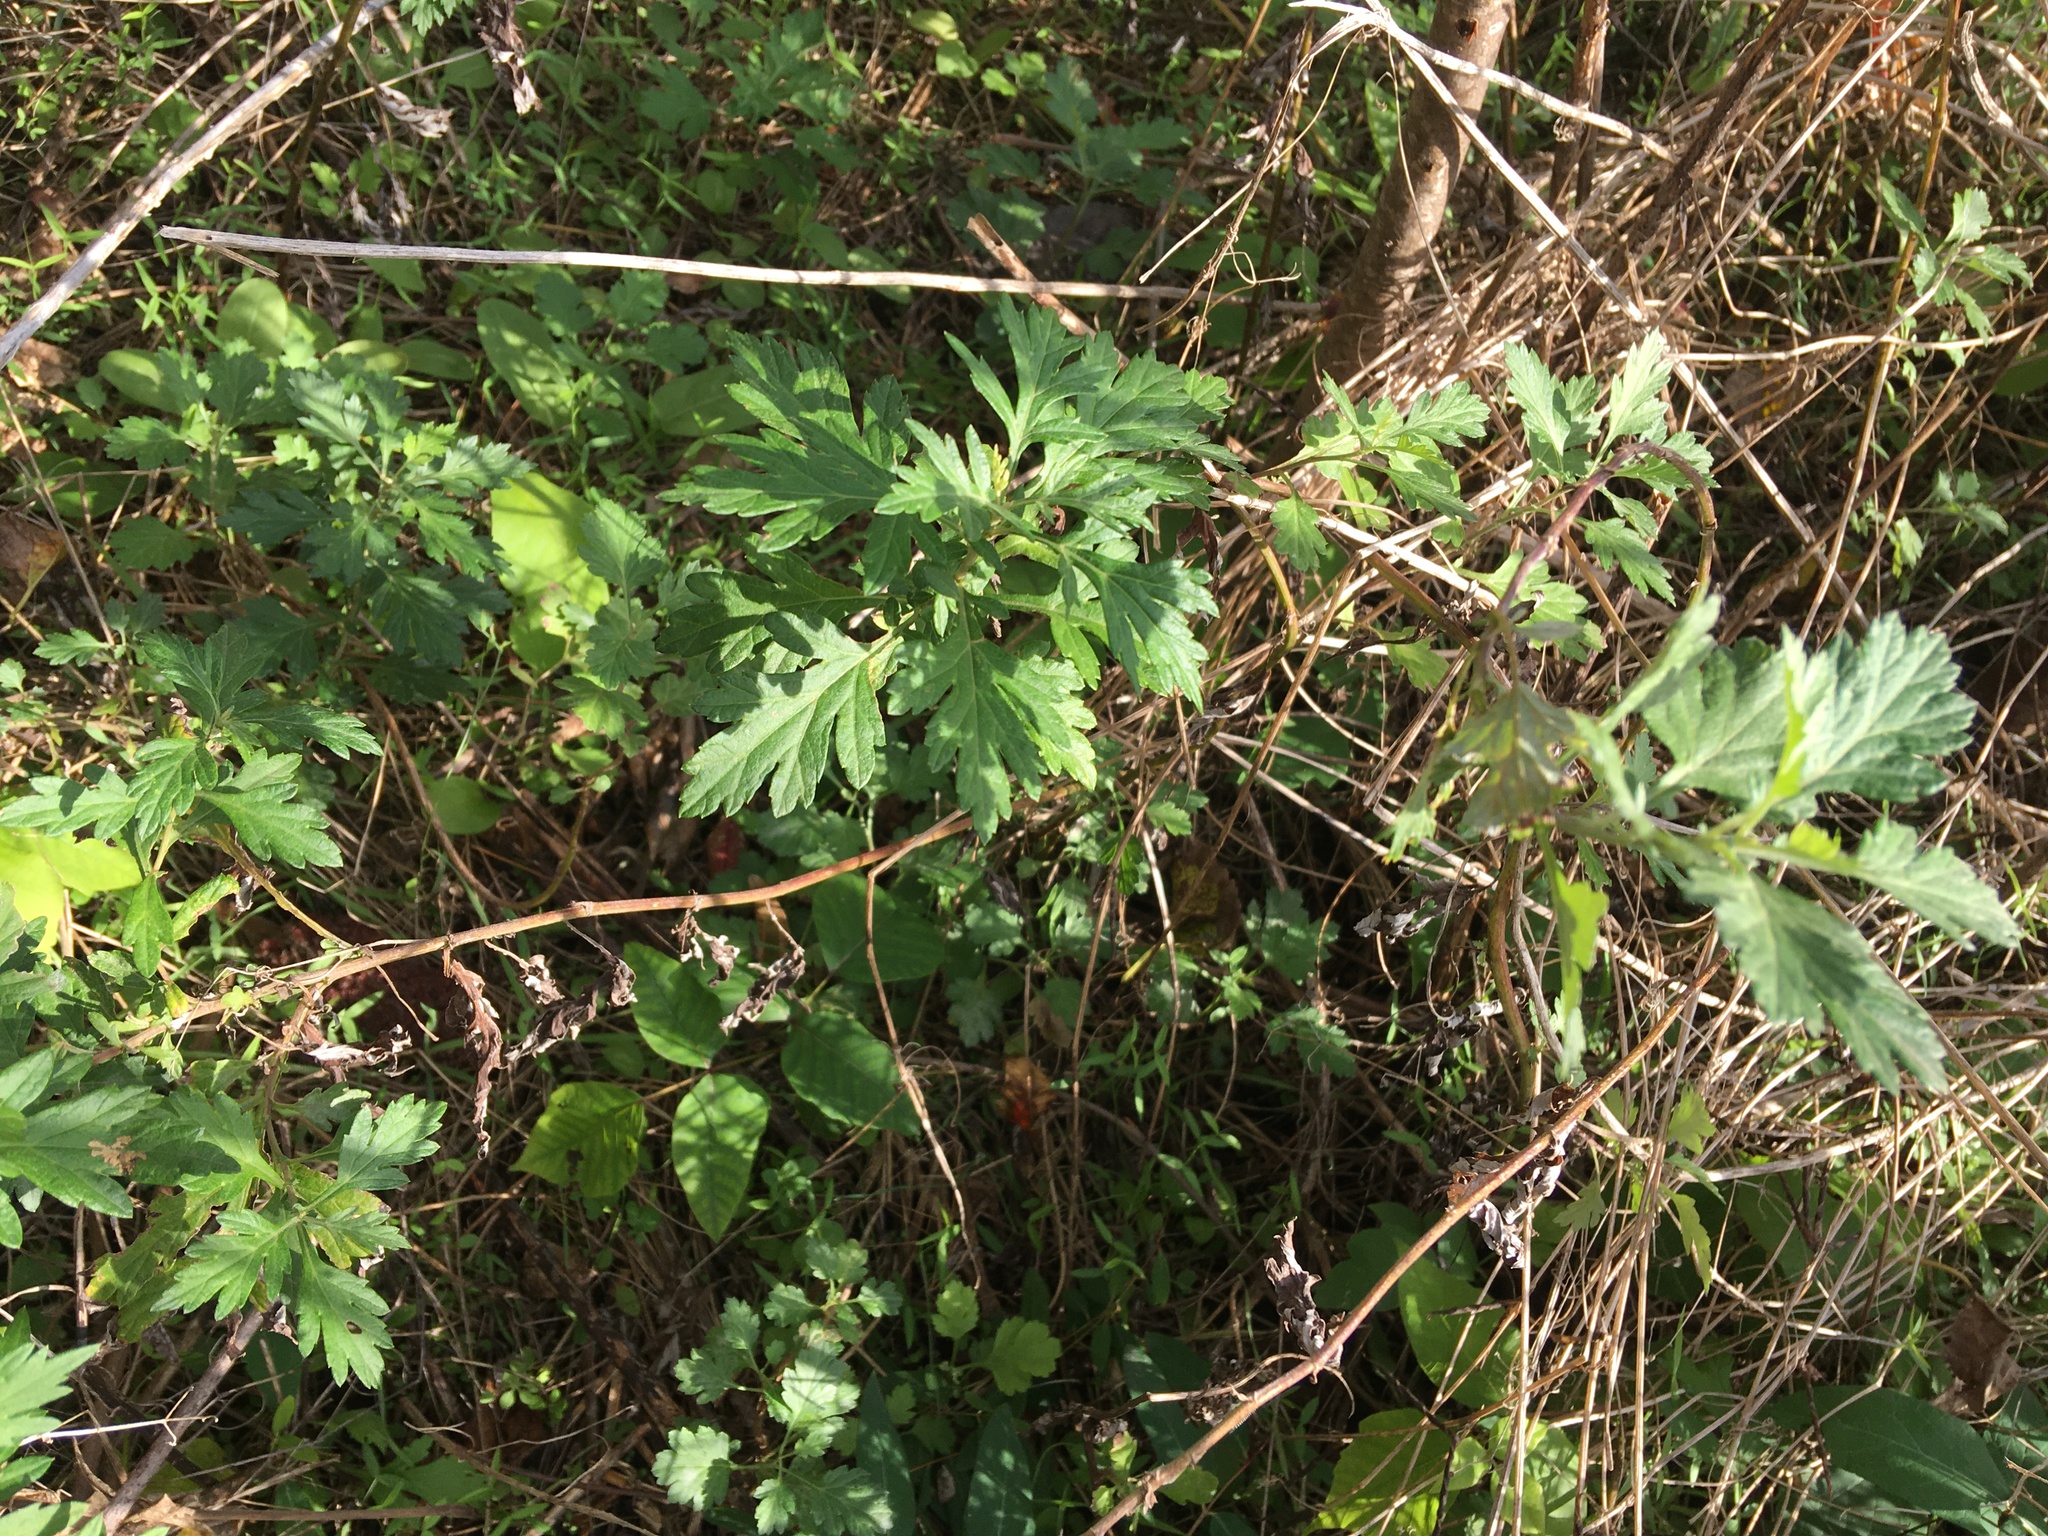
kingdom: Plantae
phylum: Tracheophyta
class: Magnoliopsida
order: Asterales
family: Asteraceae
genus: Artemisia
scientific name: Artemisia vulgaris
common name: Mugwort
